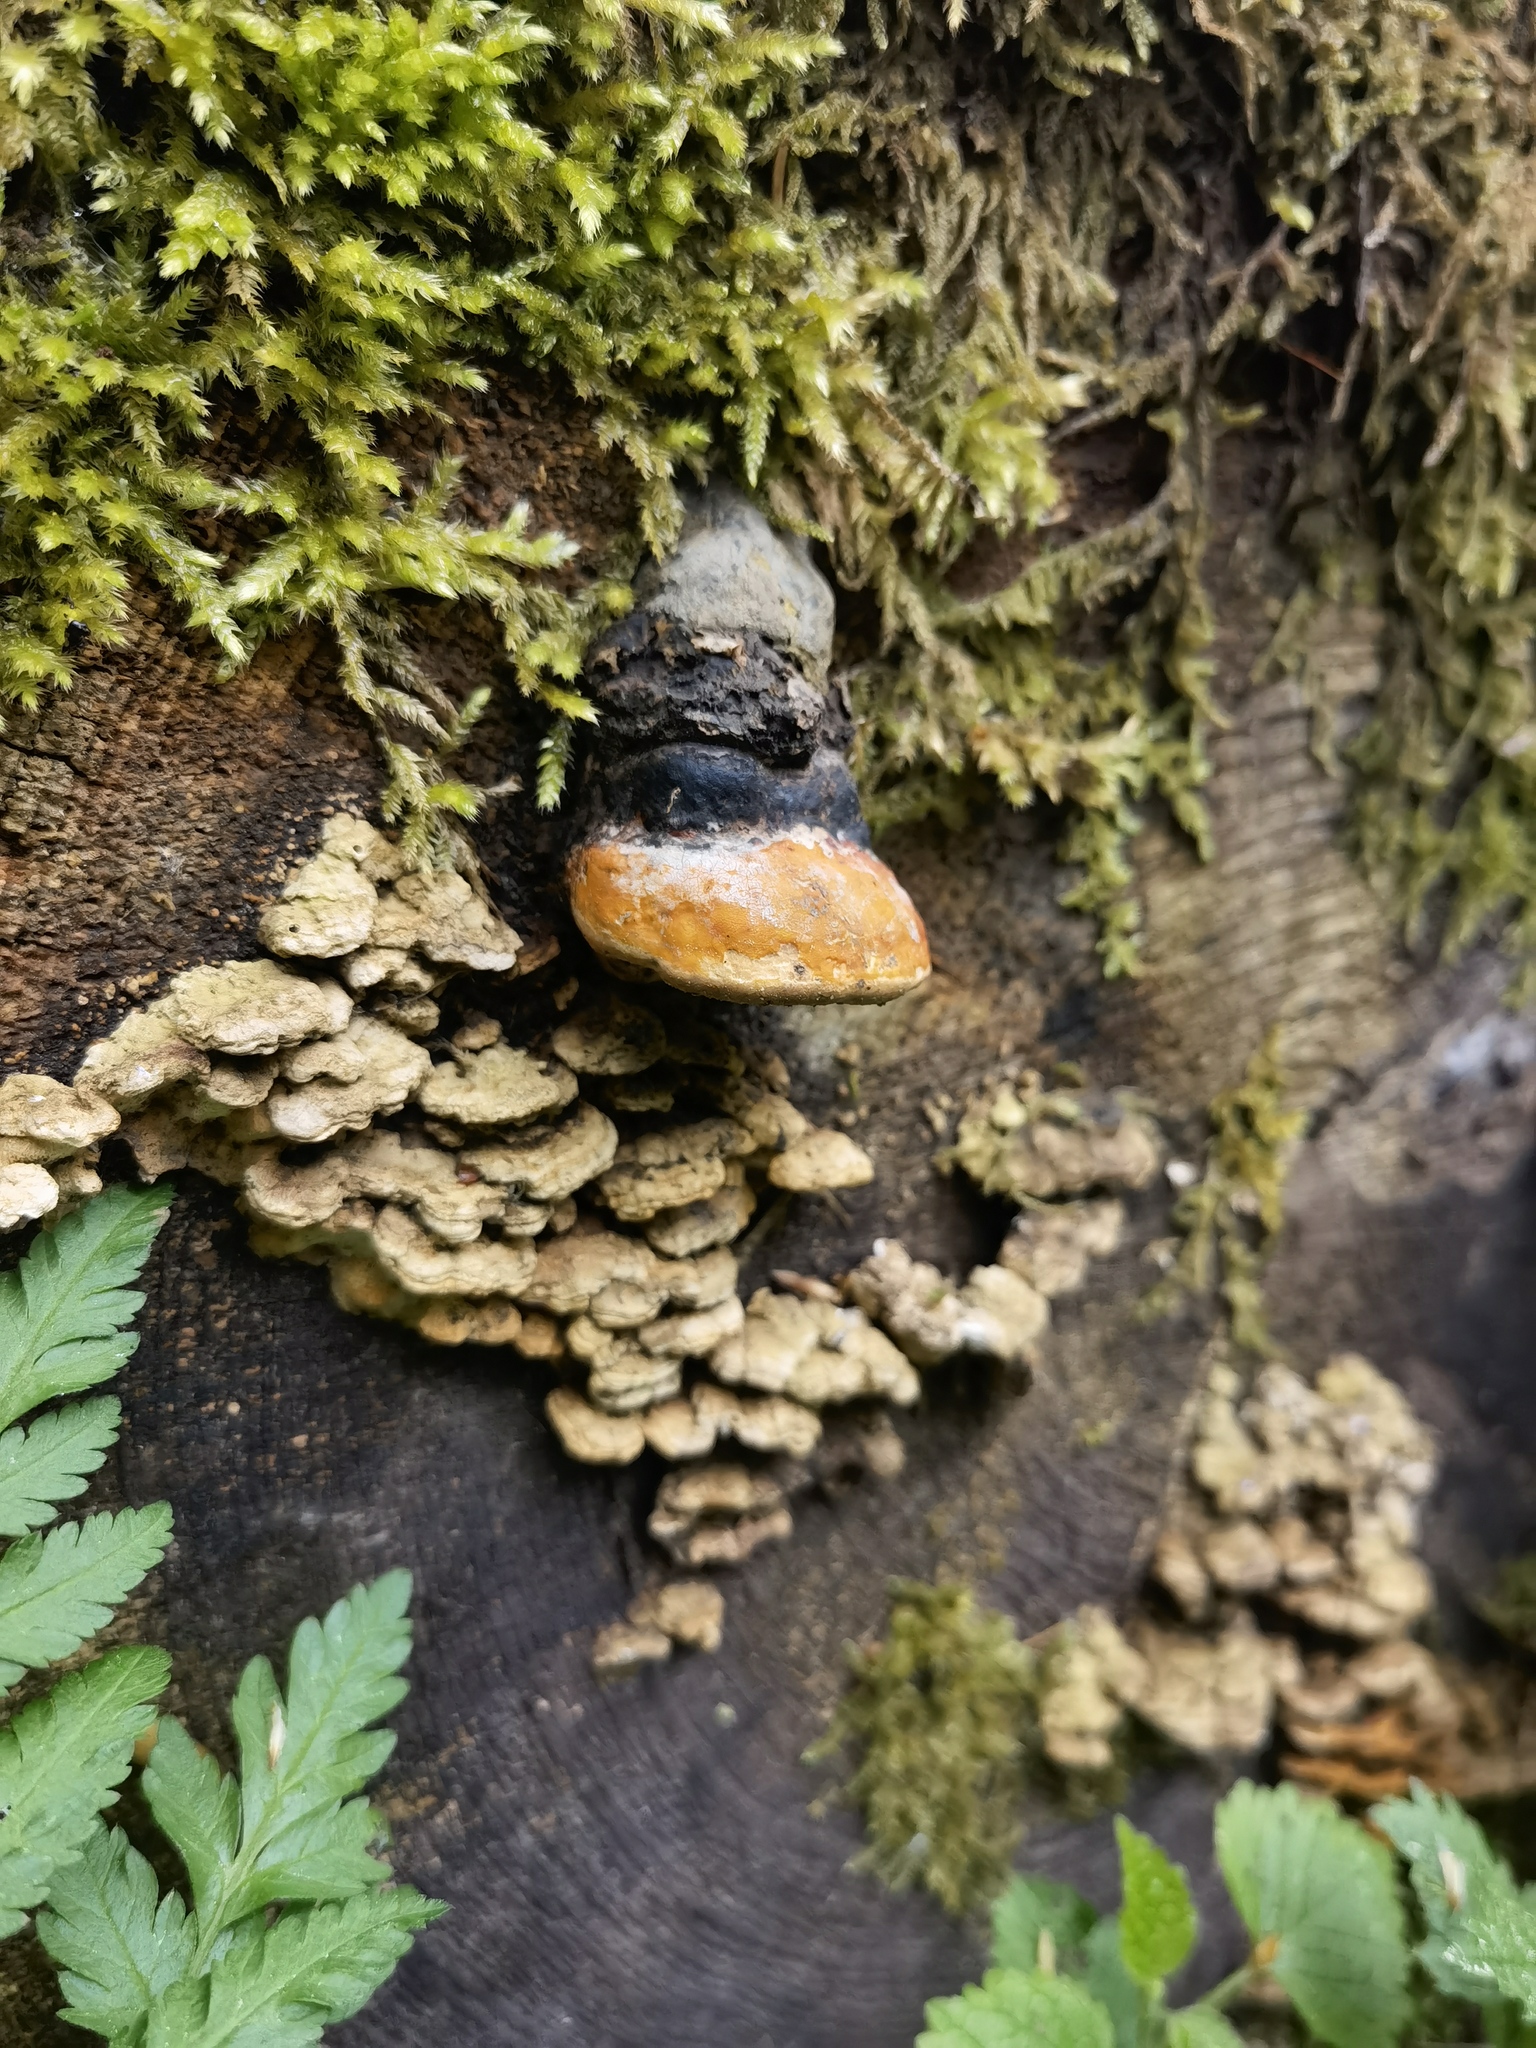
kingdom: Fungi
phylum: Basidiomycota
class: Agaricomycetes
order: Polyporales
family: Fomitopsidaceae
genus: Fomitopsis
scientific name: Fomitopsis pinicola
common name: Red-belted bracket
